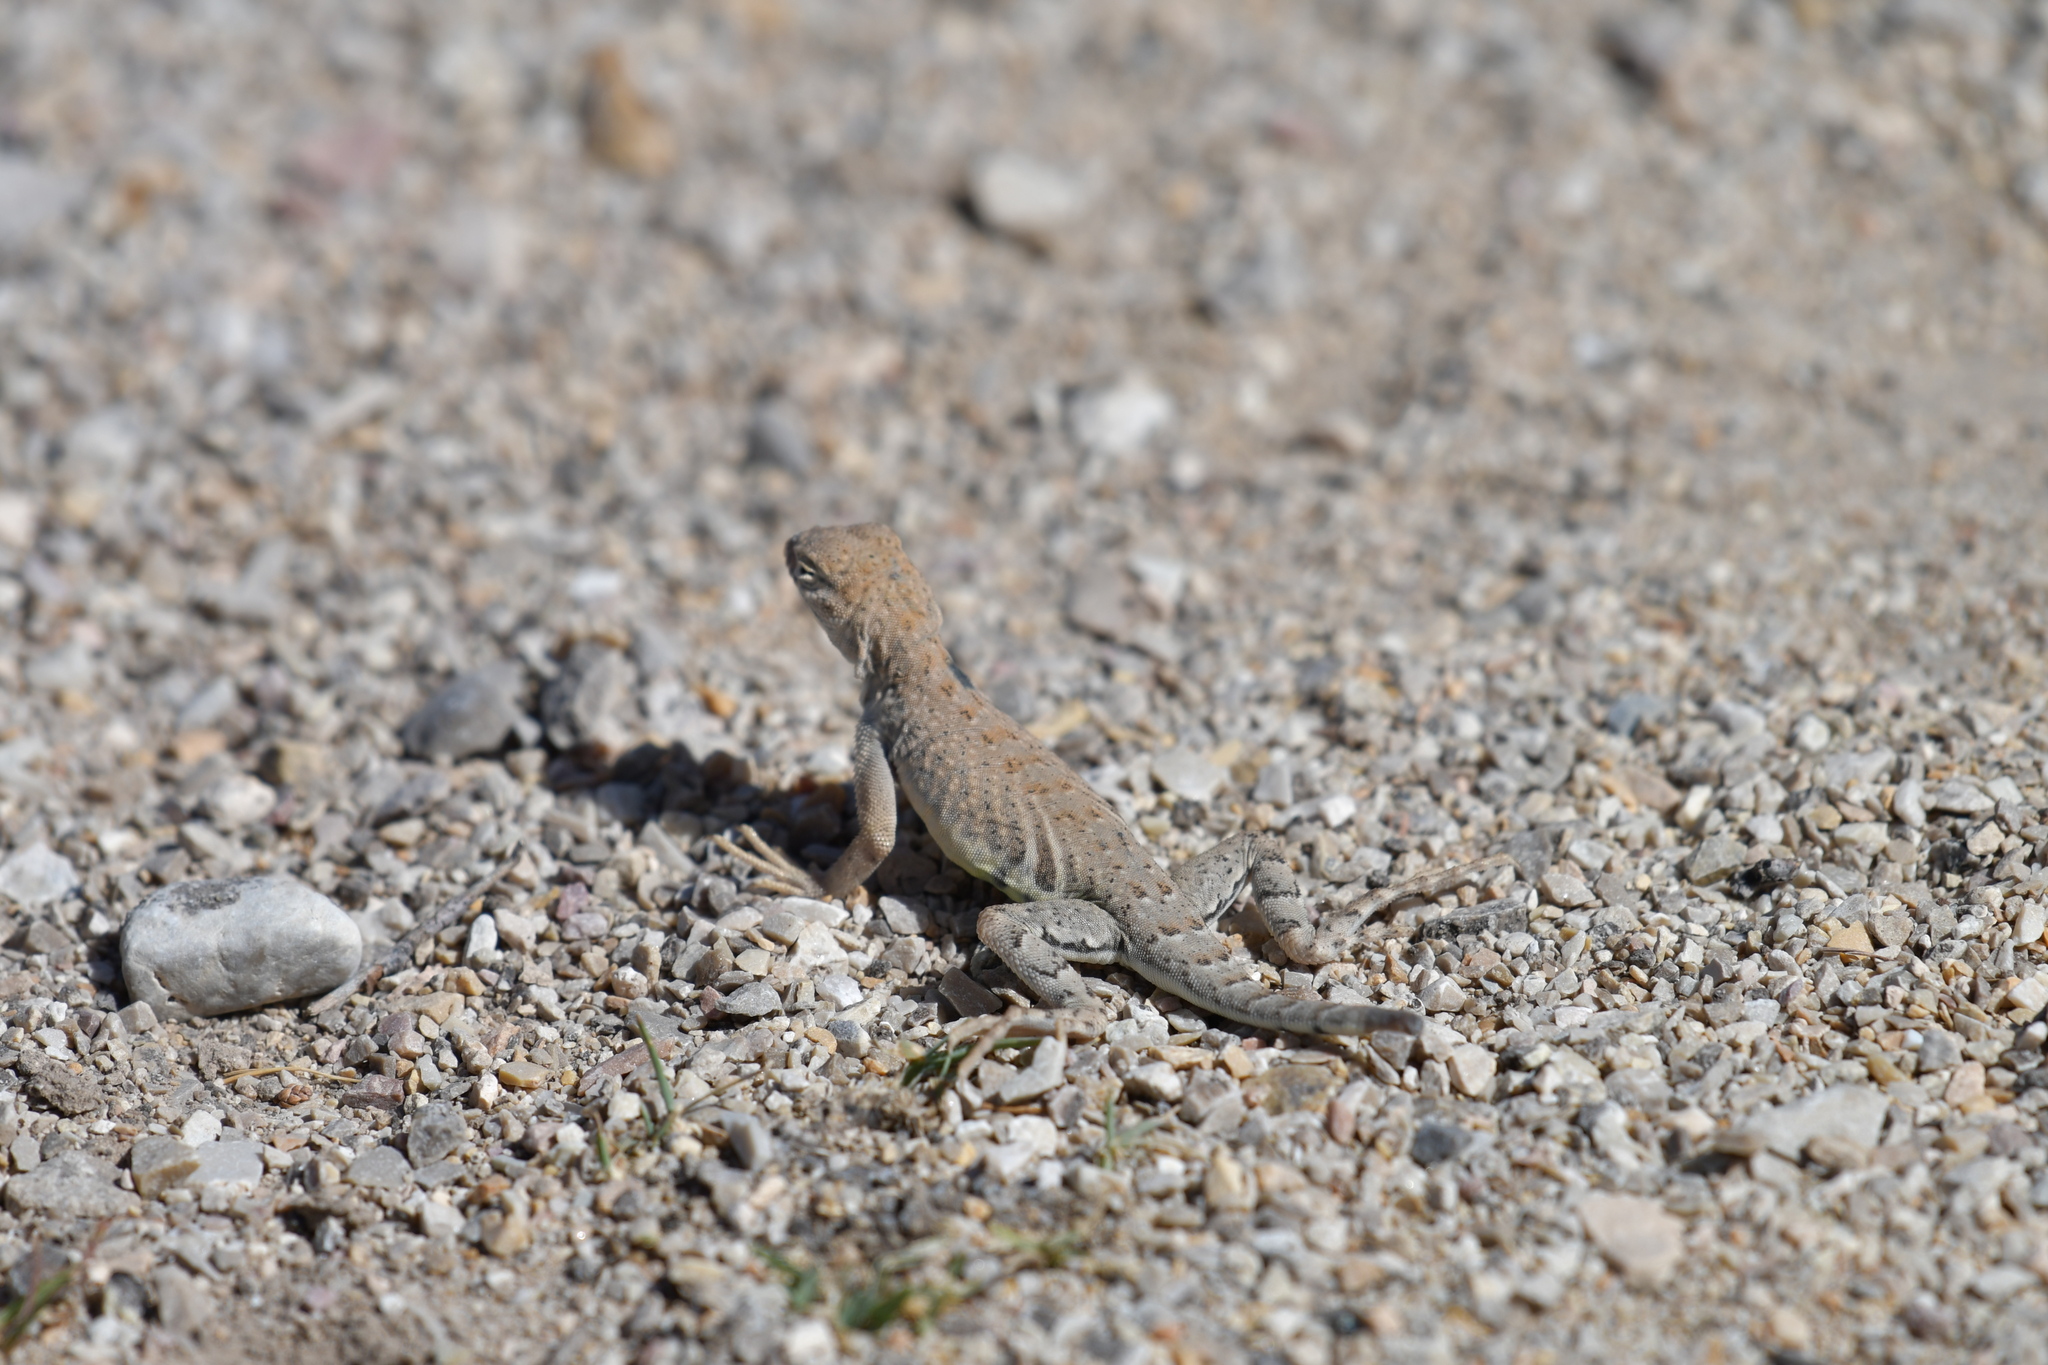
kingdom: Animalia
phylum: Chordata
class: Squamata
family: Phrynosomatidae
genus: Cophosaurus
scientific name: Cophosaurus texanus
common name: Greater earless lizard
